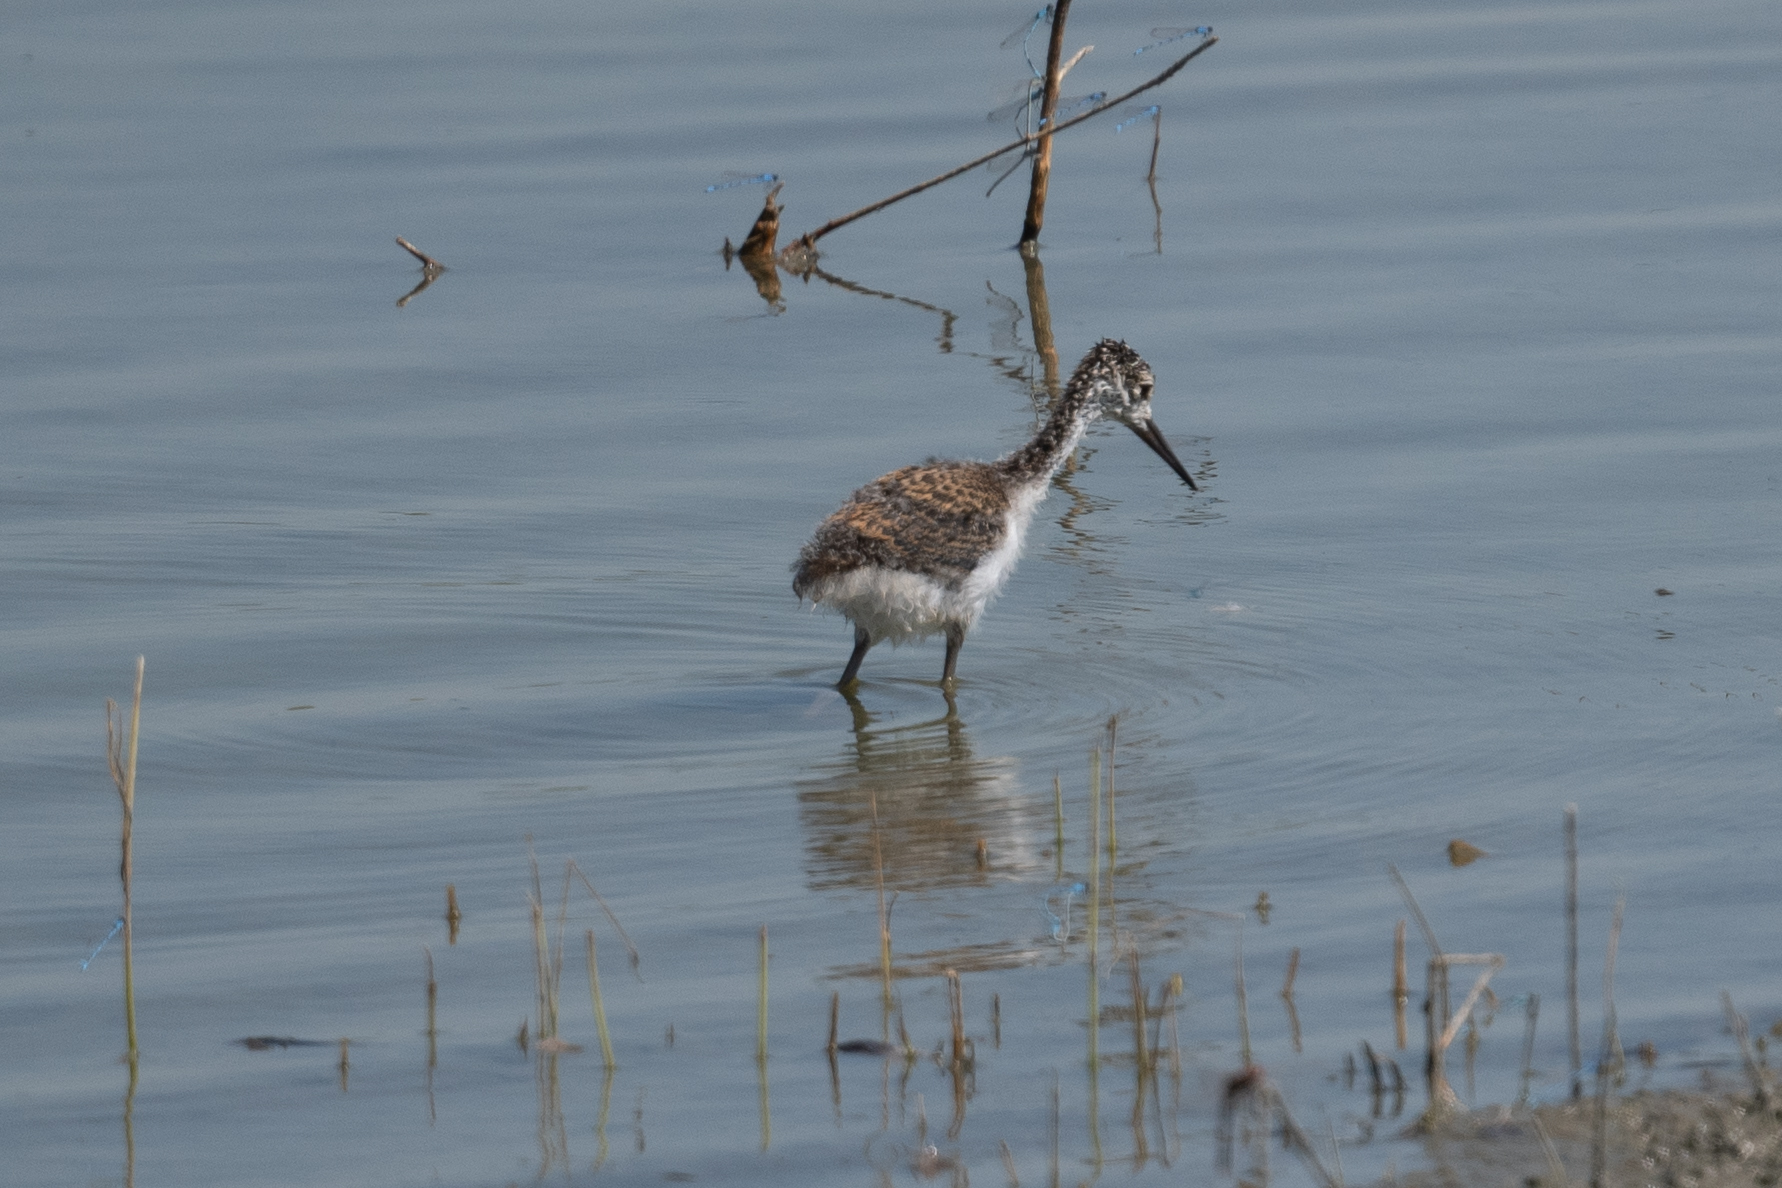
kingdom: Animalia
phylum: Chordata
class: Aves
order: Charadriiformes
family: Recurvirostridae
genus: Himantopus
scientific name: Himantopus mexicanus
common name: Black-necked stilt
